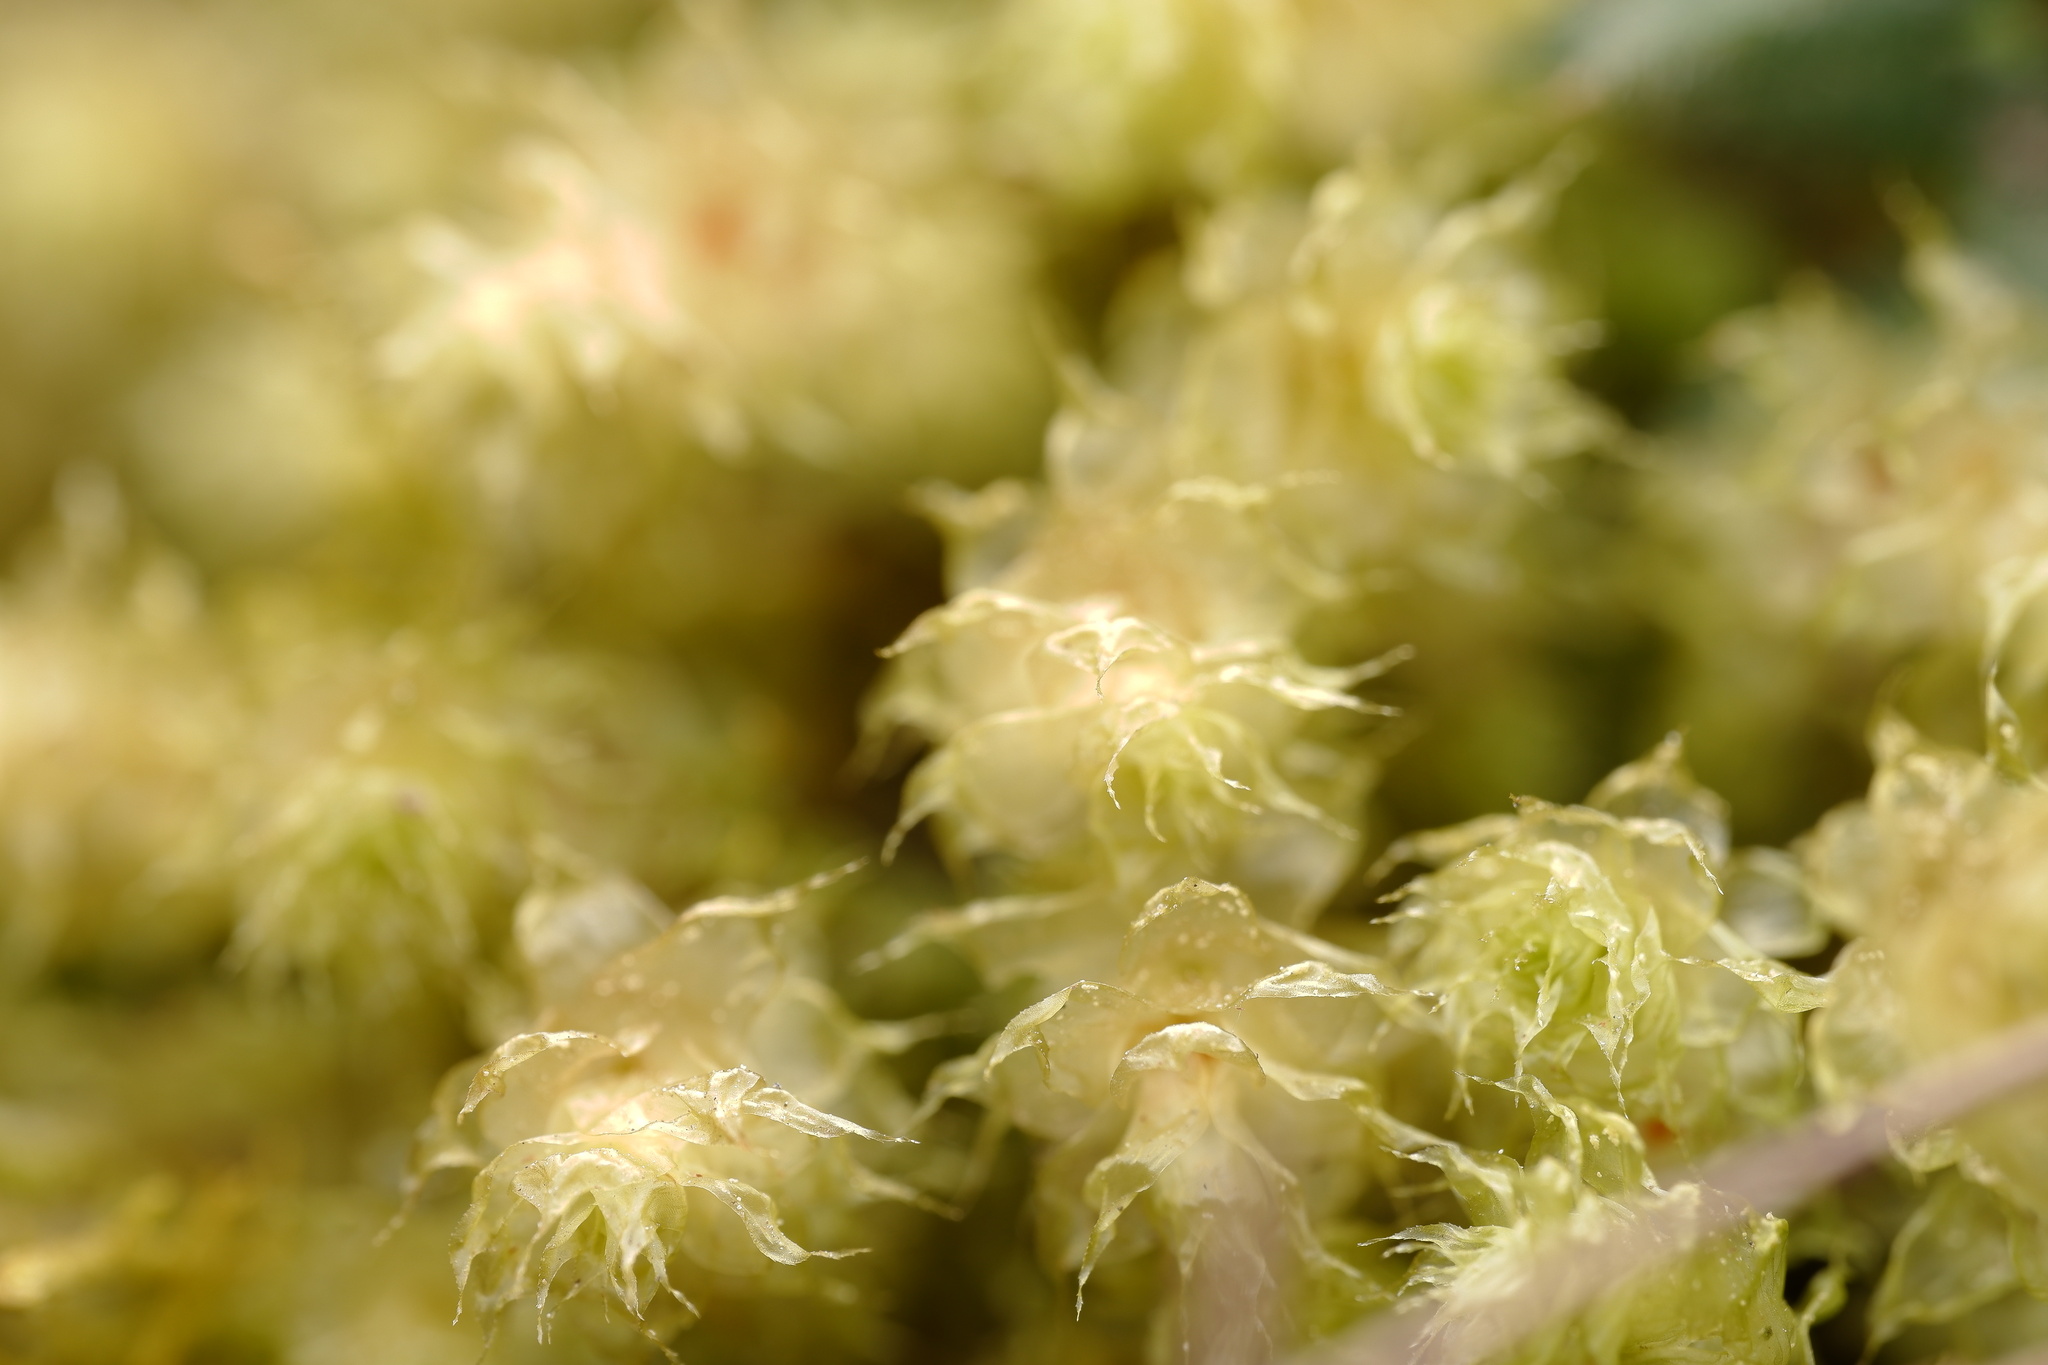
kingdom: Plantae
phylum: Bryophyta
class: Bryopsida
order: Ptychomniales
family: Ptychomniaceae
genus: Ptychomnion
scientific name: Ptychomnion aciculare
